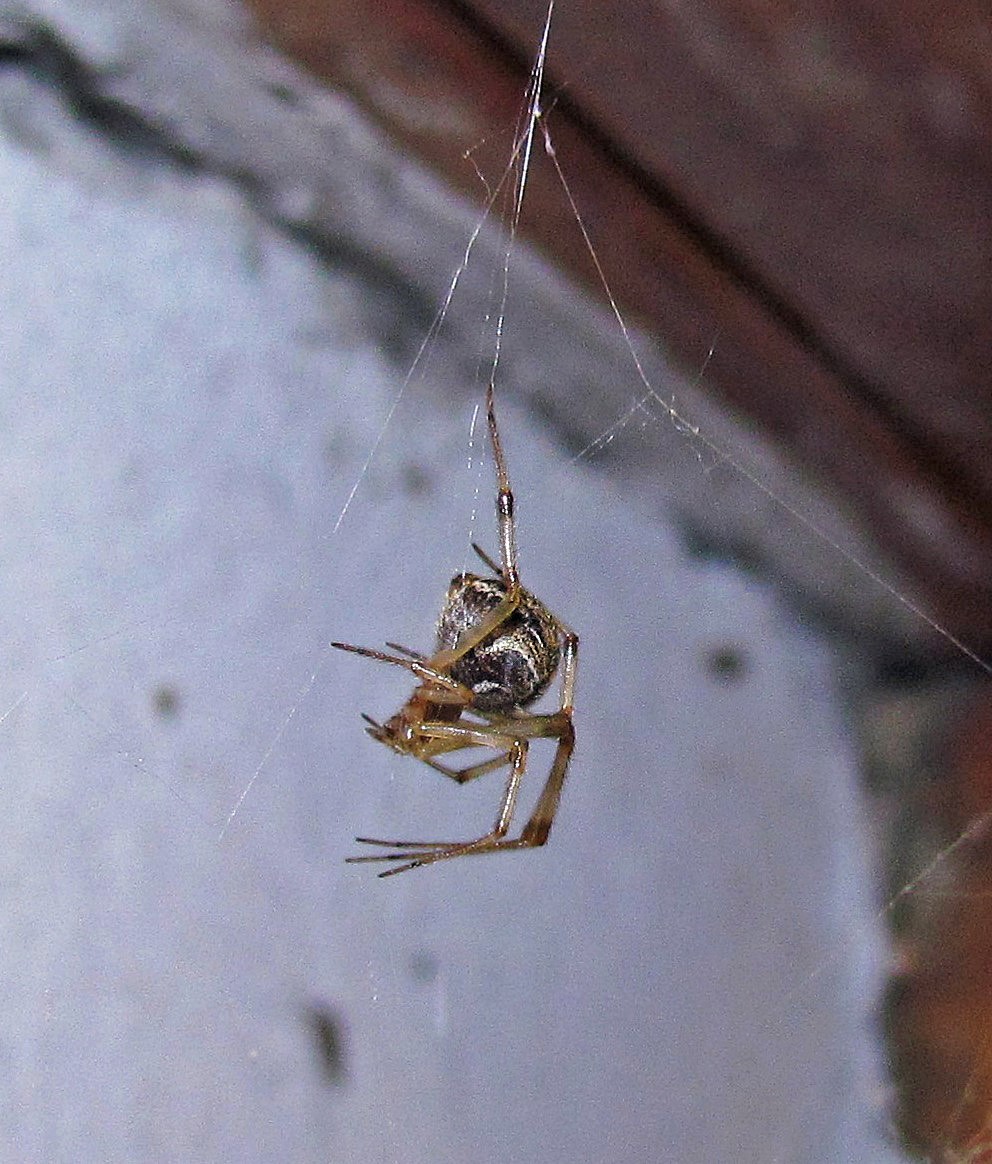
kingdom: Animalia
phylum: Arthropoda
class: Arachnida
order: Araneae
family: Theridiidae
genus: Parasteatoda
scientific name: Parasteatoda tepidariorum
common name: Common house spider
